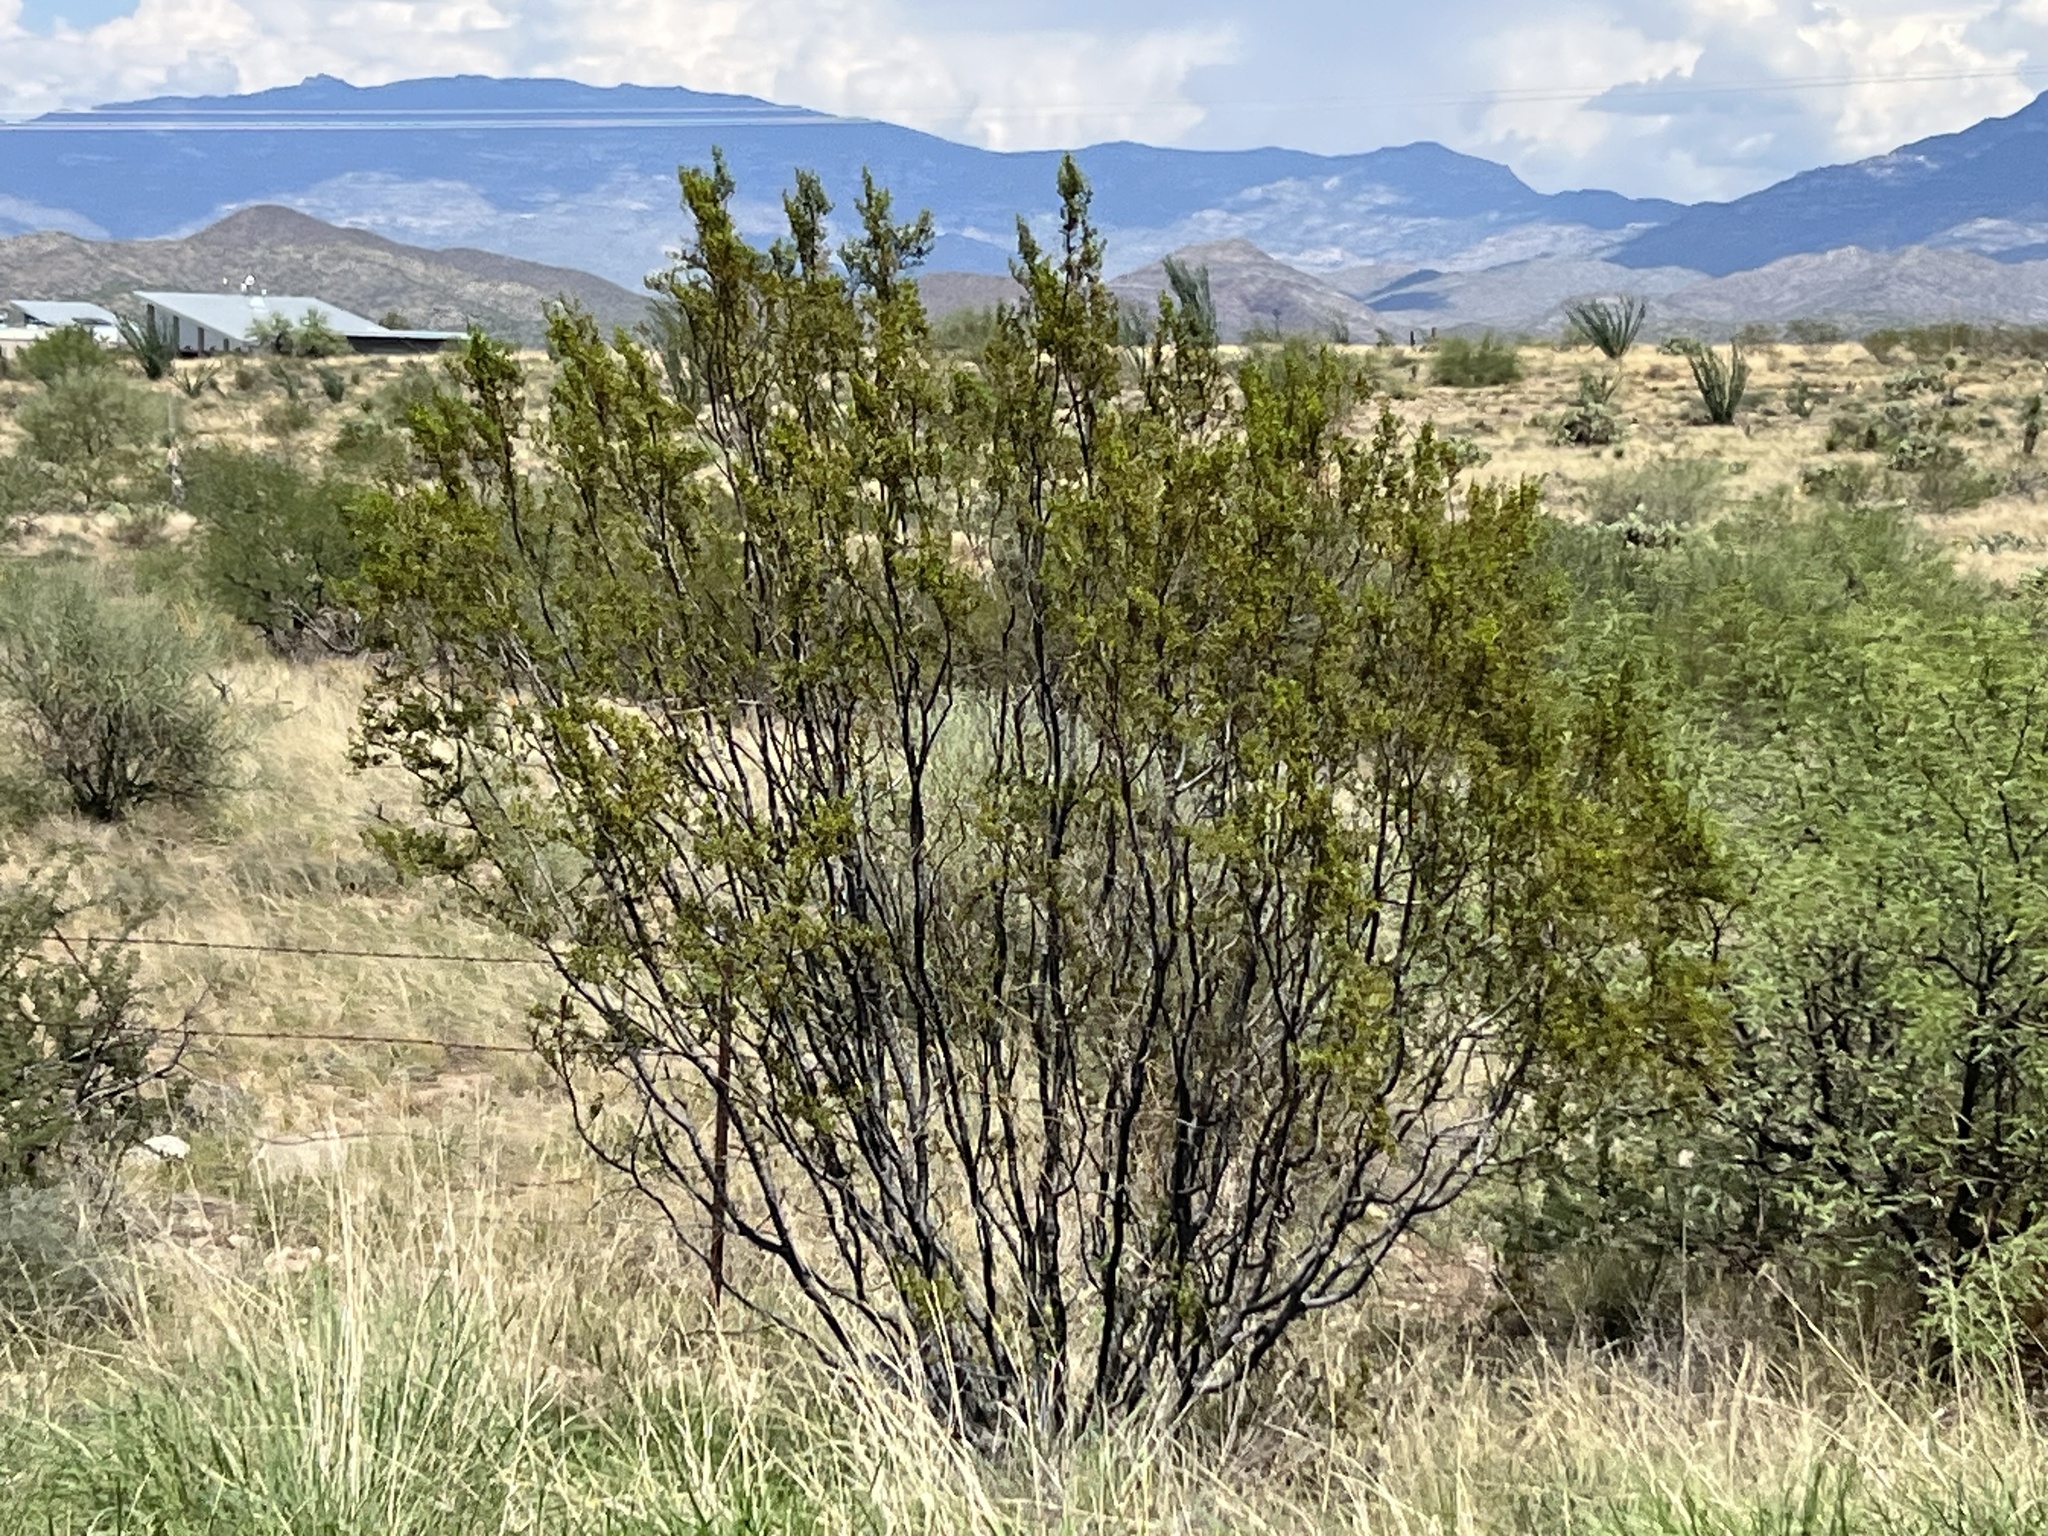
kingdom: Plantae
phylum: Tracheophyta
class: Magnoliopsida
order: Zygophyllales
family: Zygophyllaceae
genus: Larrea
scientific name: Larrea tridentata
